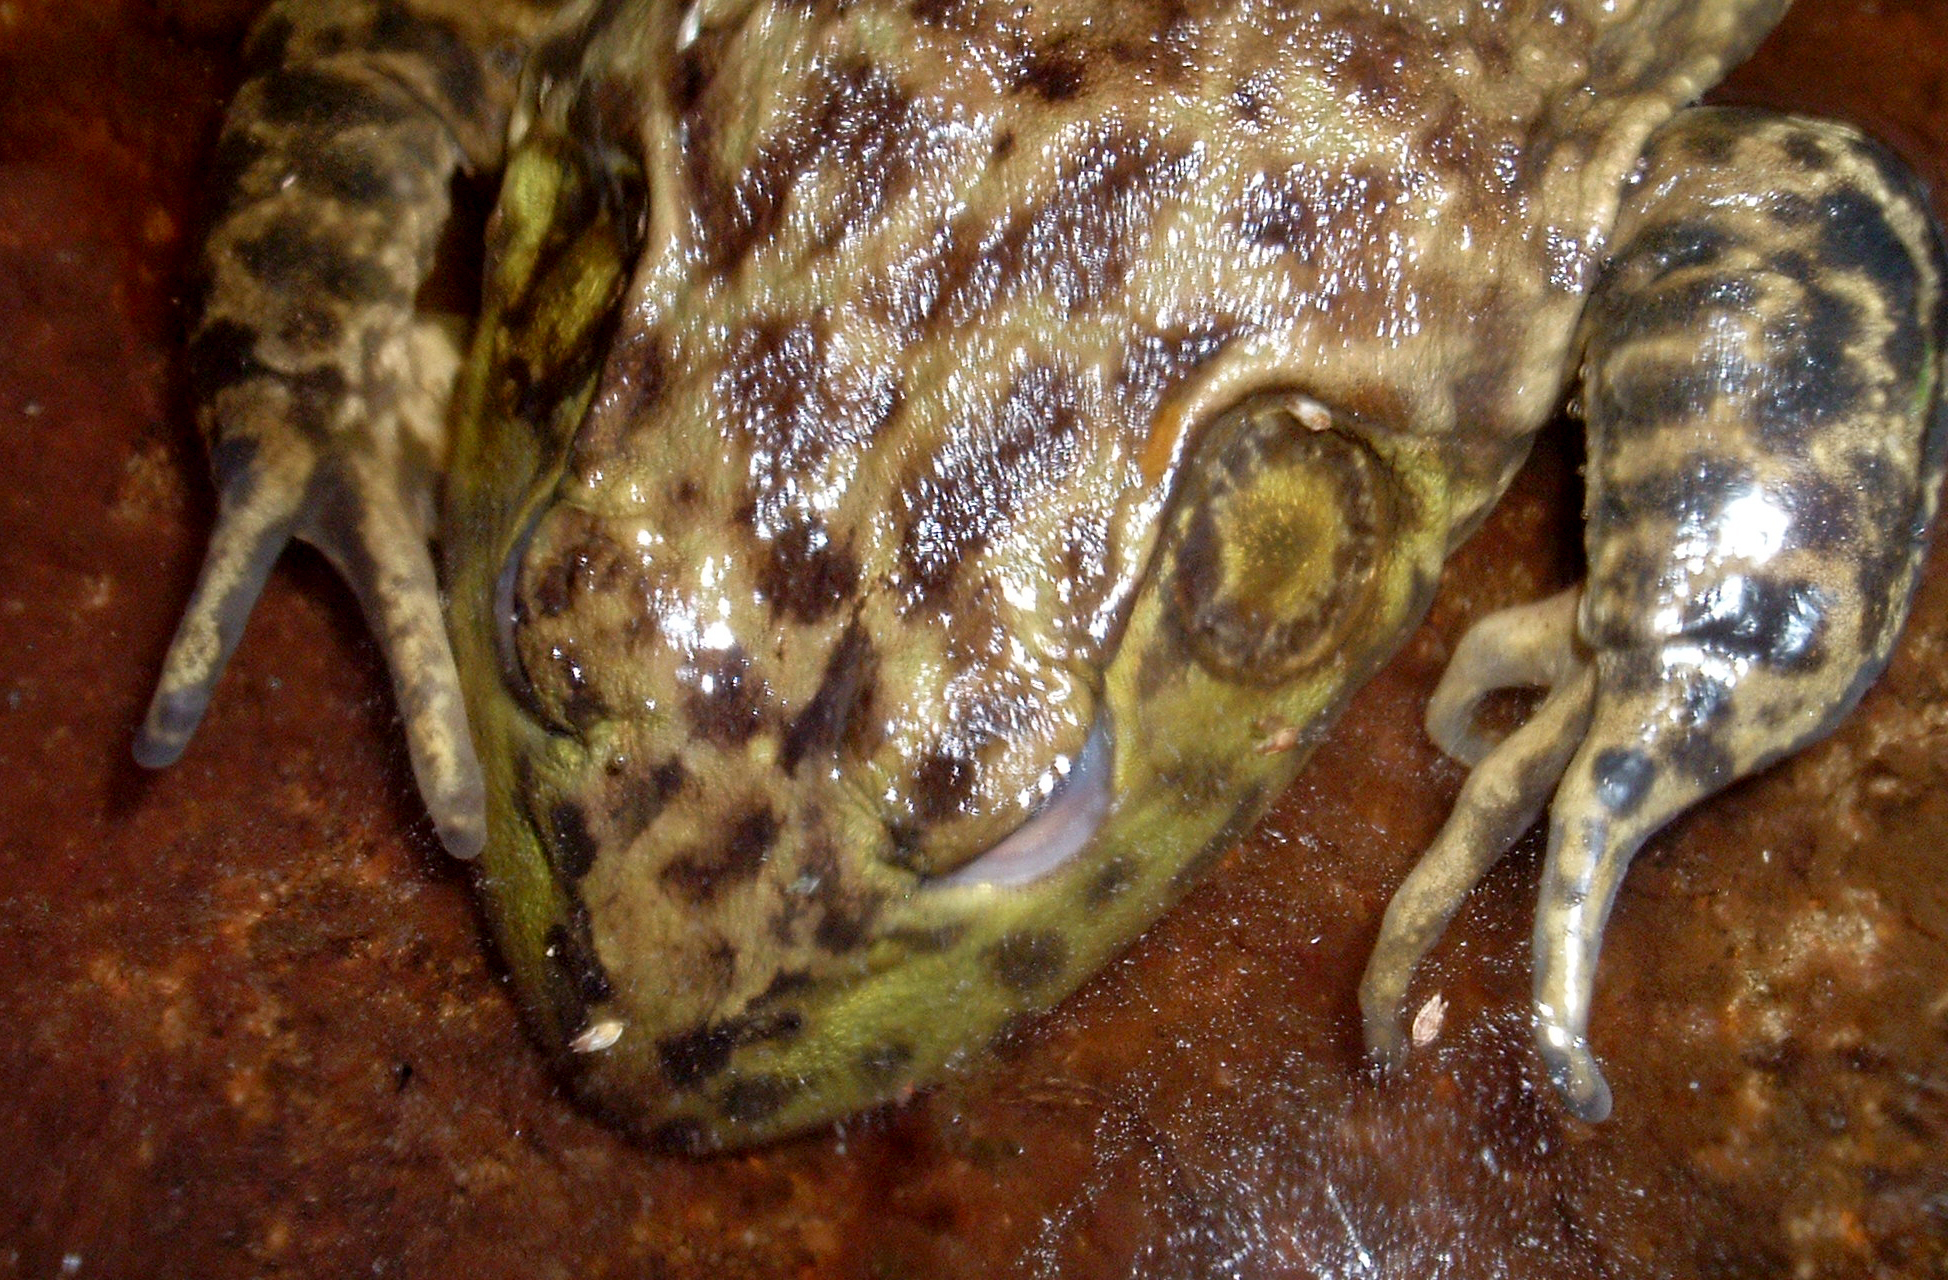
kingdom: Animalia
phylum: Chordata
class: Amphibia
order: Anura
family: Ranidae
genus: Lithobates
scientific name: Lithobates catesbeianus
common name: American bullfrog
